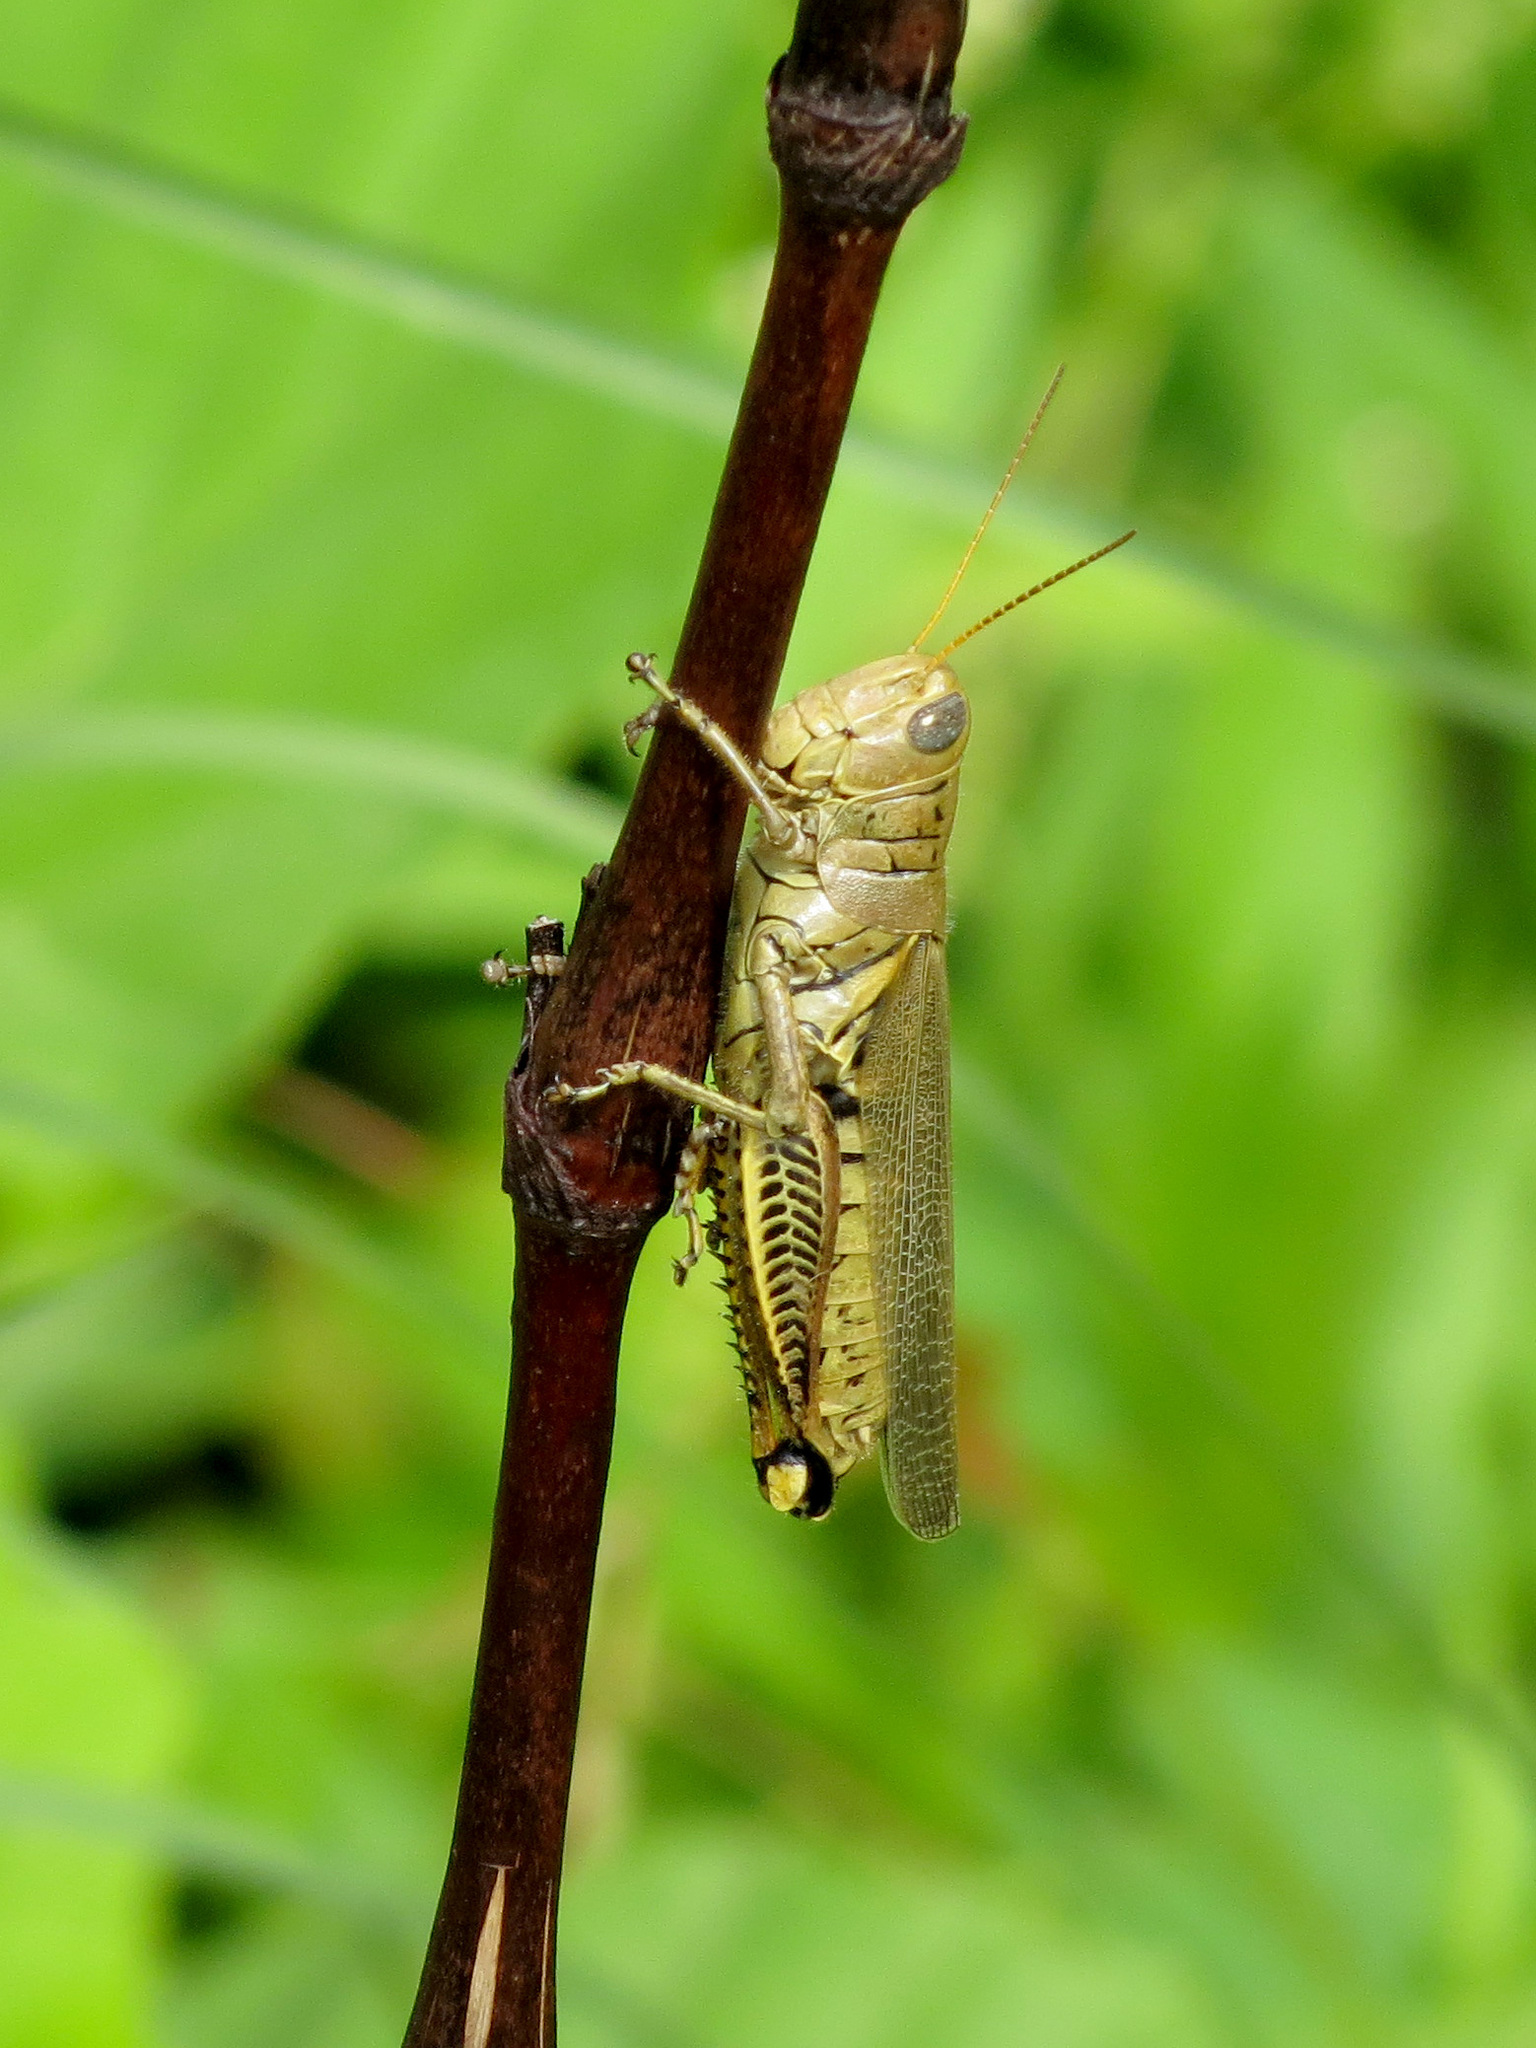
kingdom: Animalia
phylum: Arthropoda
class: Insecta
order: Orthoptera
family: Acrididae
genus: Melanoplus
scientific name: Melanoplus differentialis
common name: Differential grasshopper
